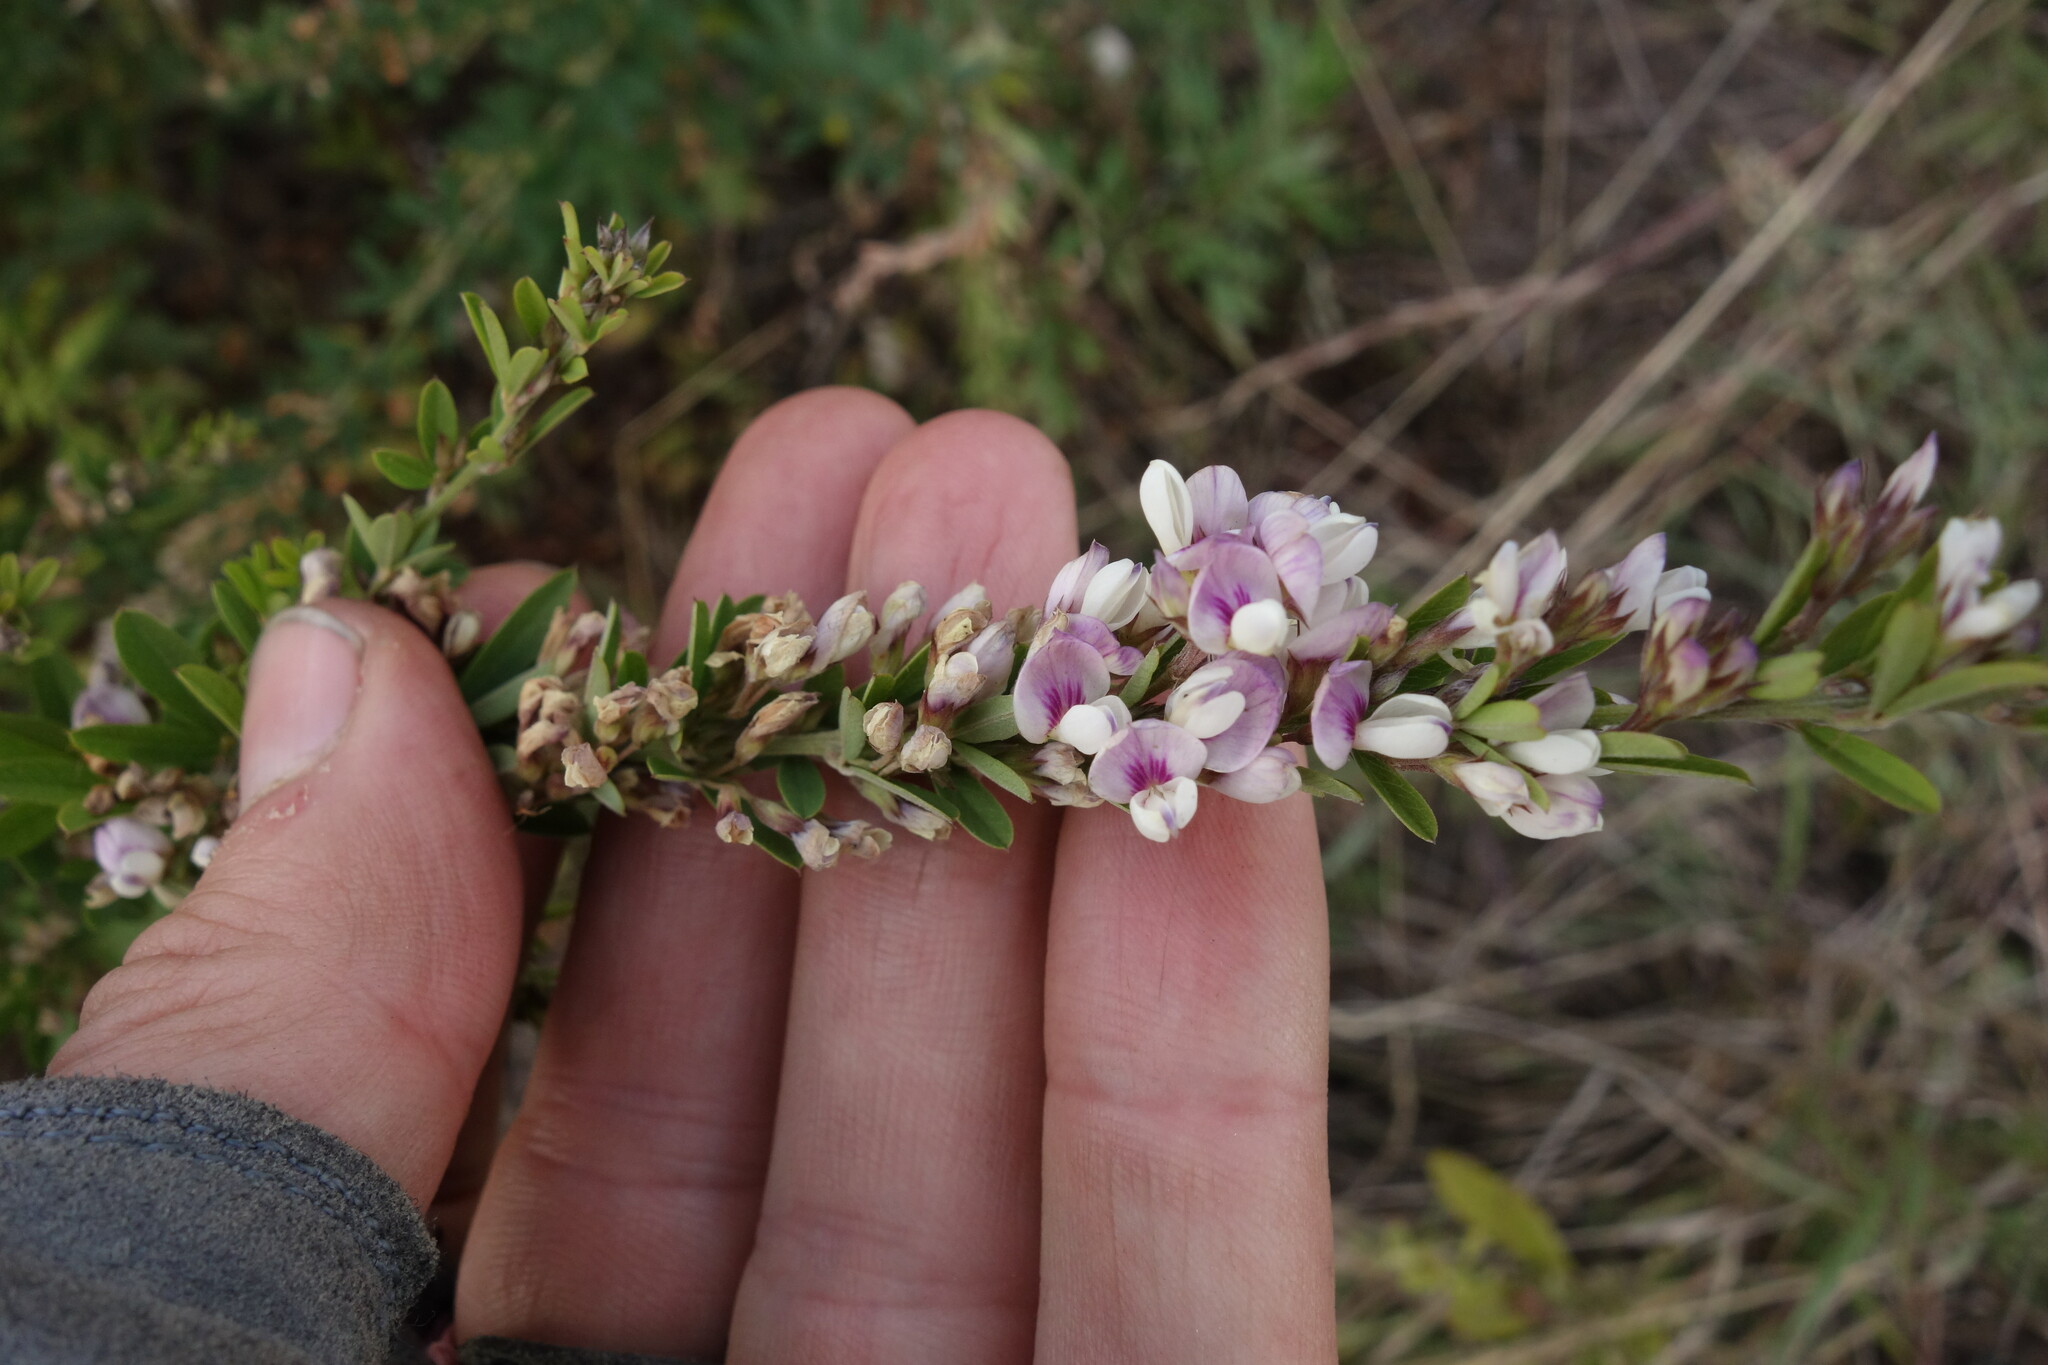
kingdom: Plantae
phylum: Tracheophyta
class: Magnoliopsida
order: Fabales
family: Fabaceae
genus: Lespedeza
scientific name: Lespedeza juncea
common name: Siberian lespedeza
